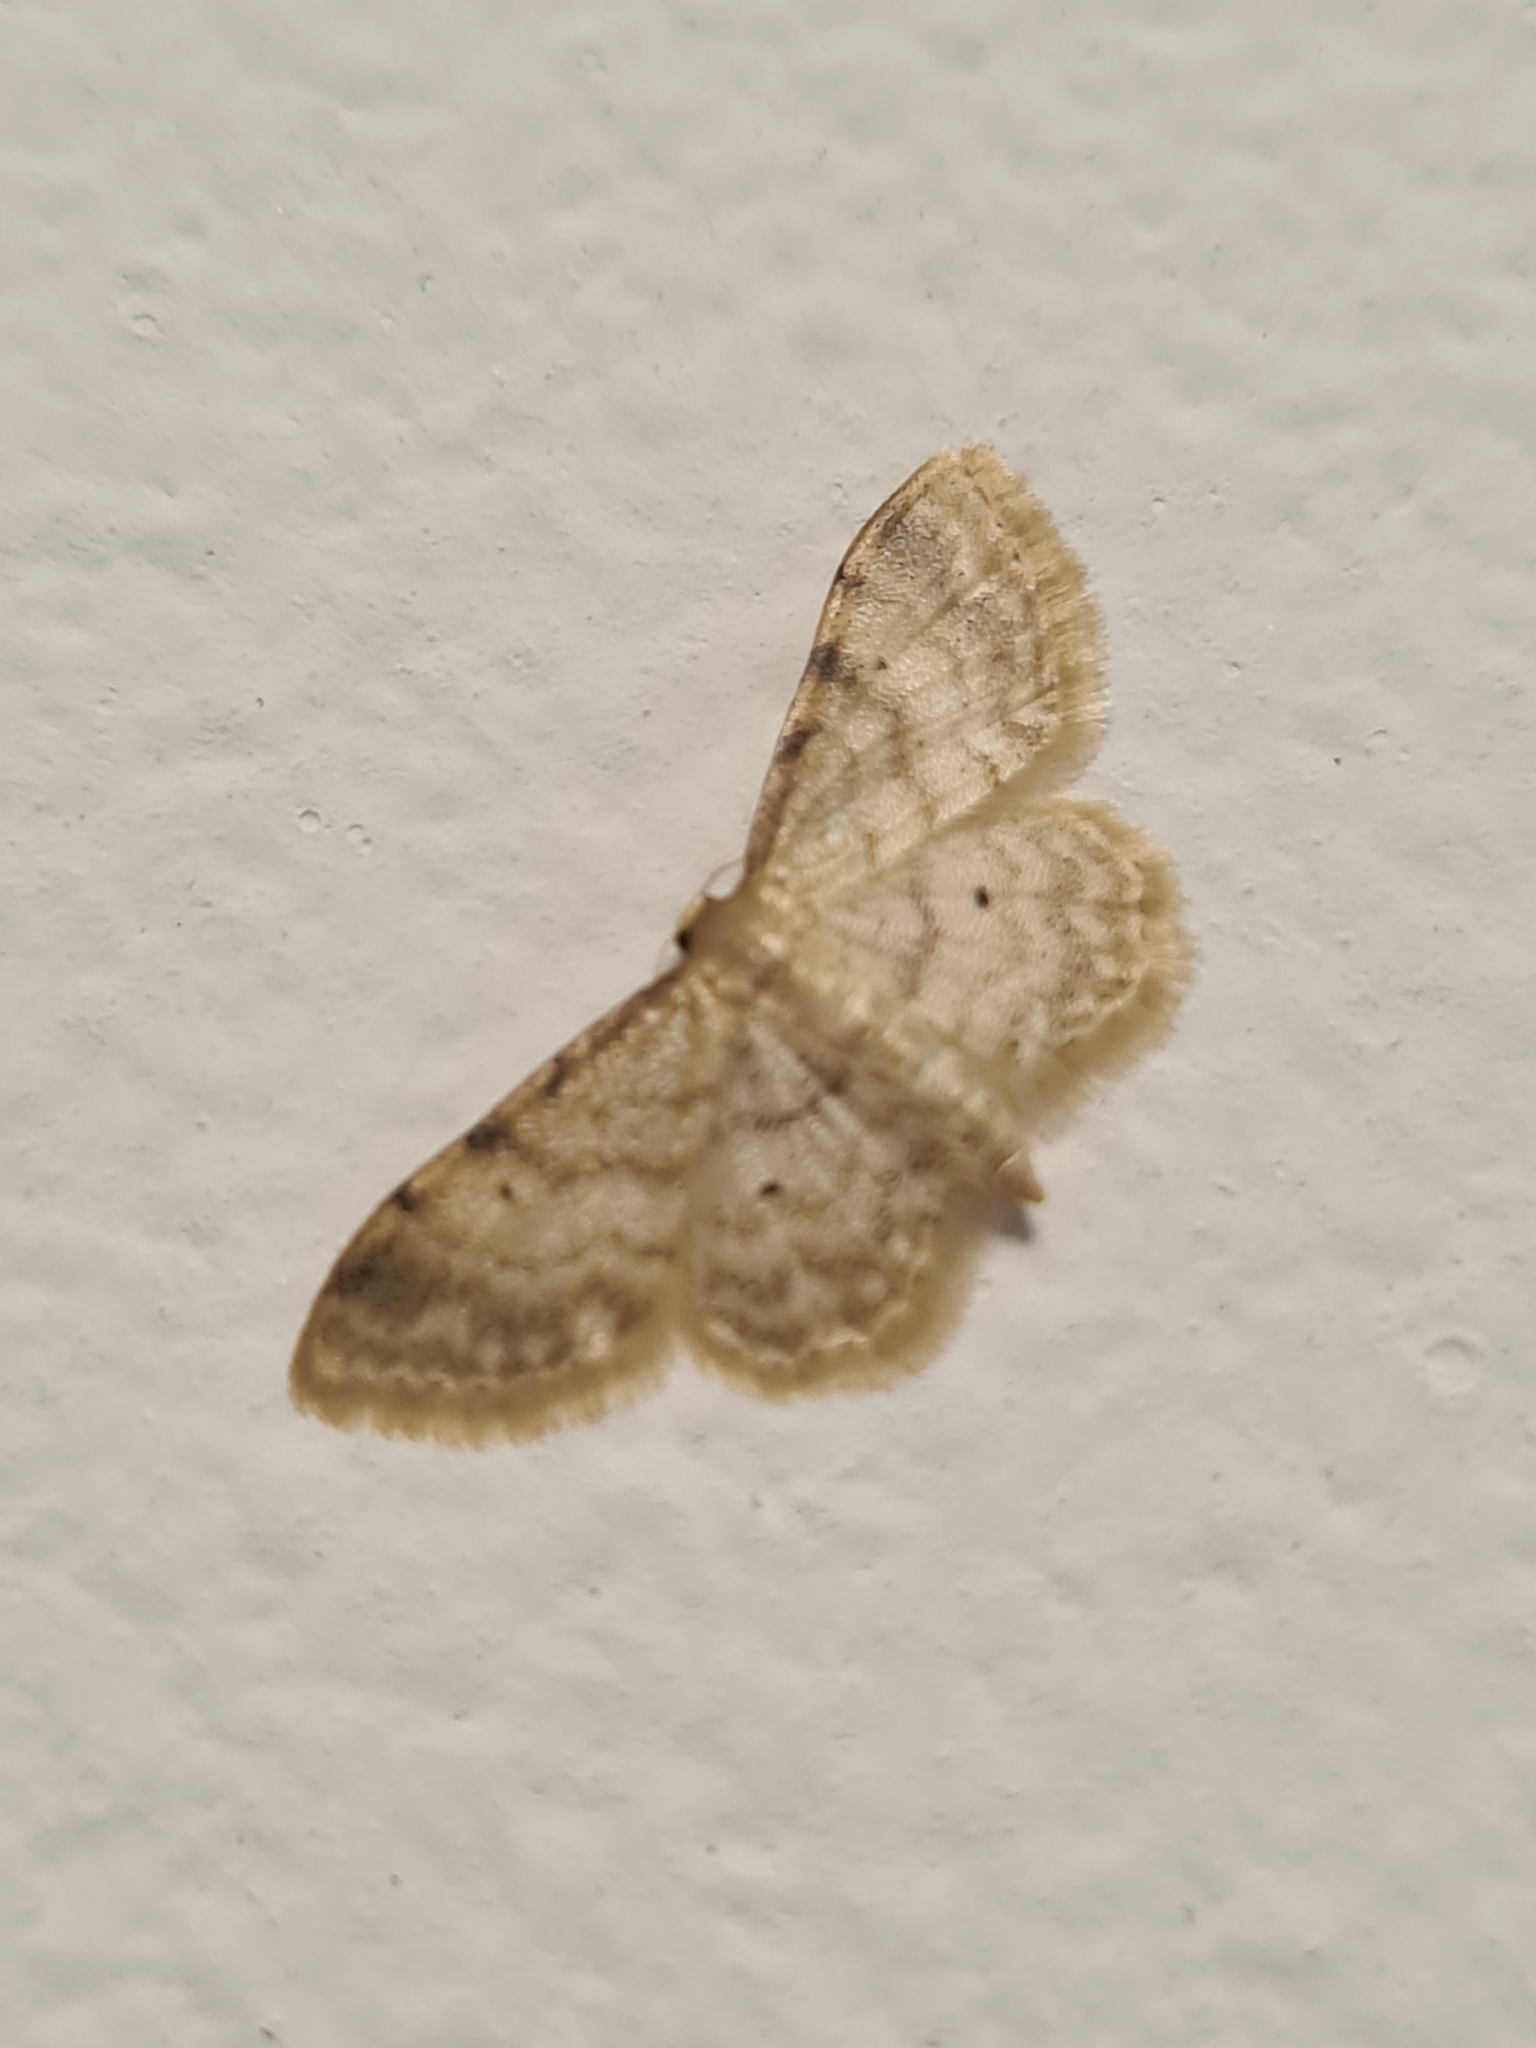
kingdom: Animalia
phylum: Arthropoda
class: Insecta
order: Lepidoptera
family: Geometridae
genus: Idaea
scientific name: Idaea fuscovenosa
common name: Dwarf cream wave
